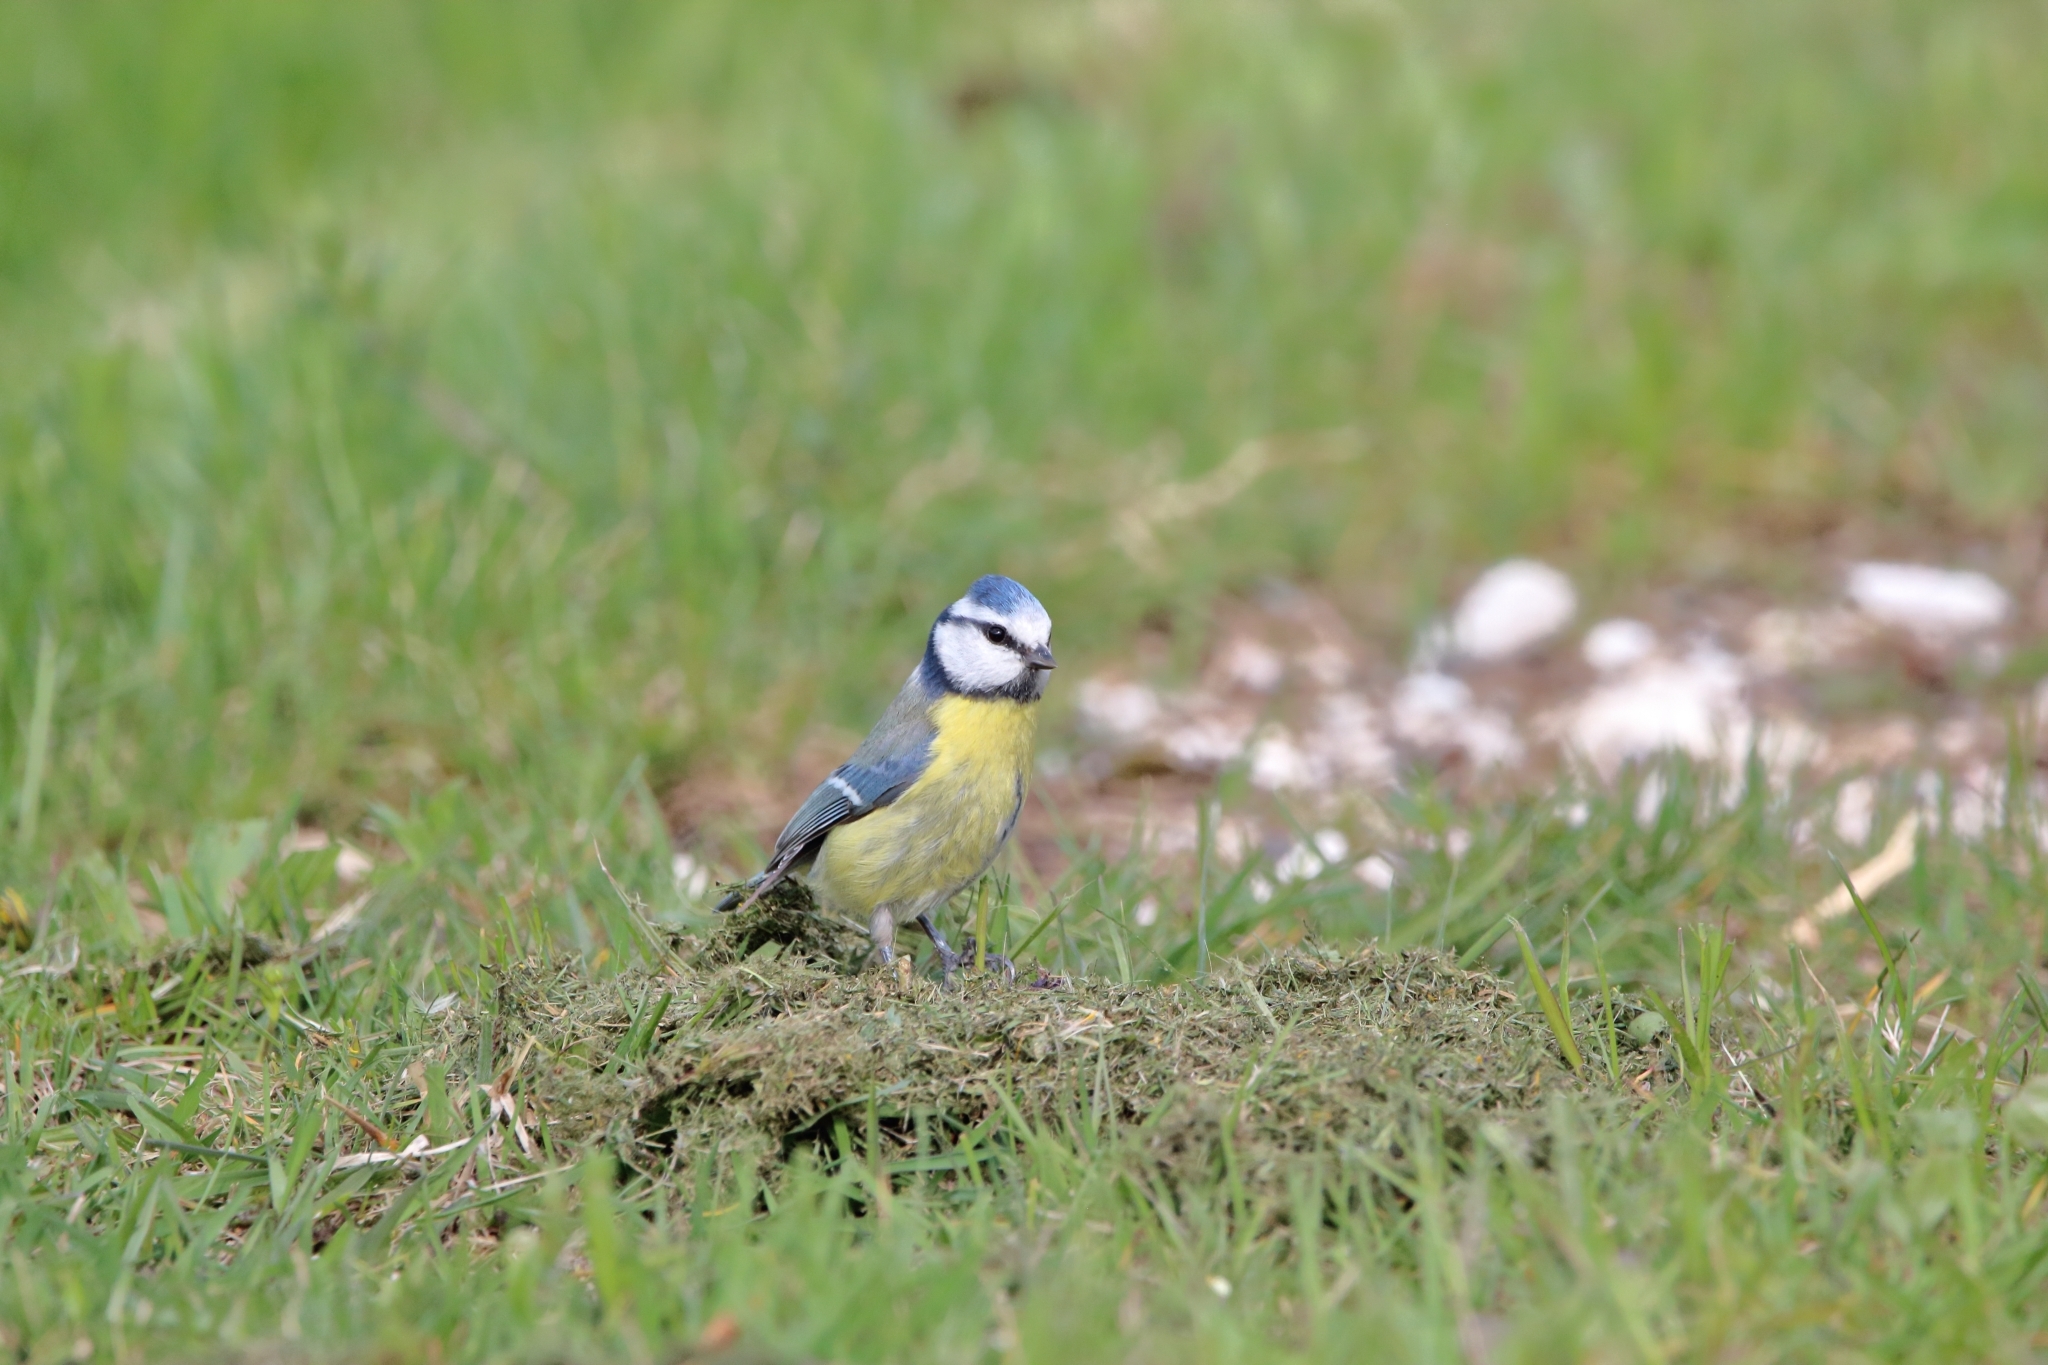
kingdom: Animalia
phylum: Chordata
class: Aves
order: Passeriformes
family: Paridae
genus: Cyanistes
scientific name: Cyanistes caeruleus
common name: Eurasian blue tit
